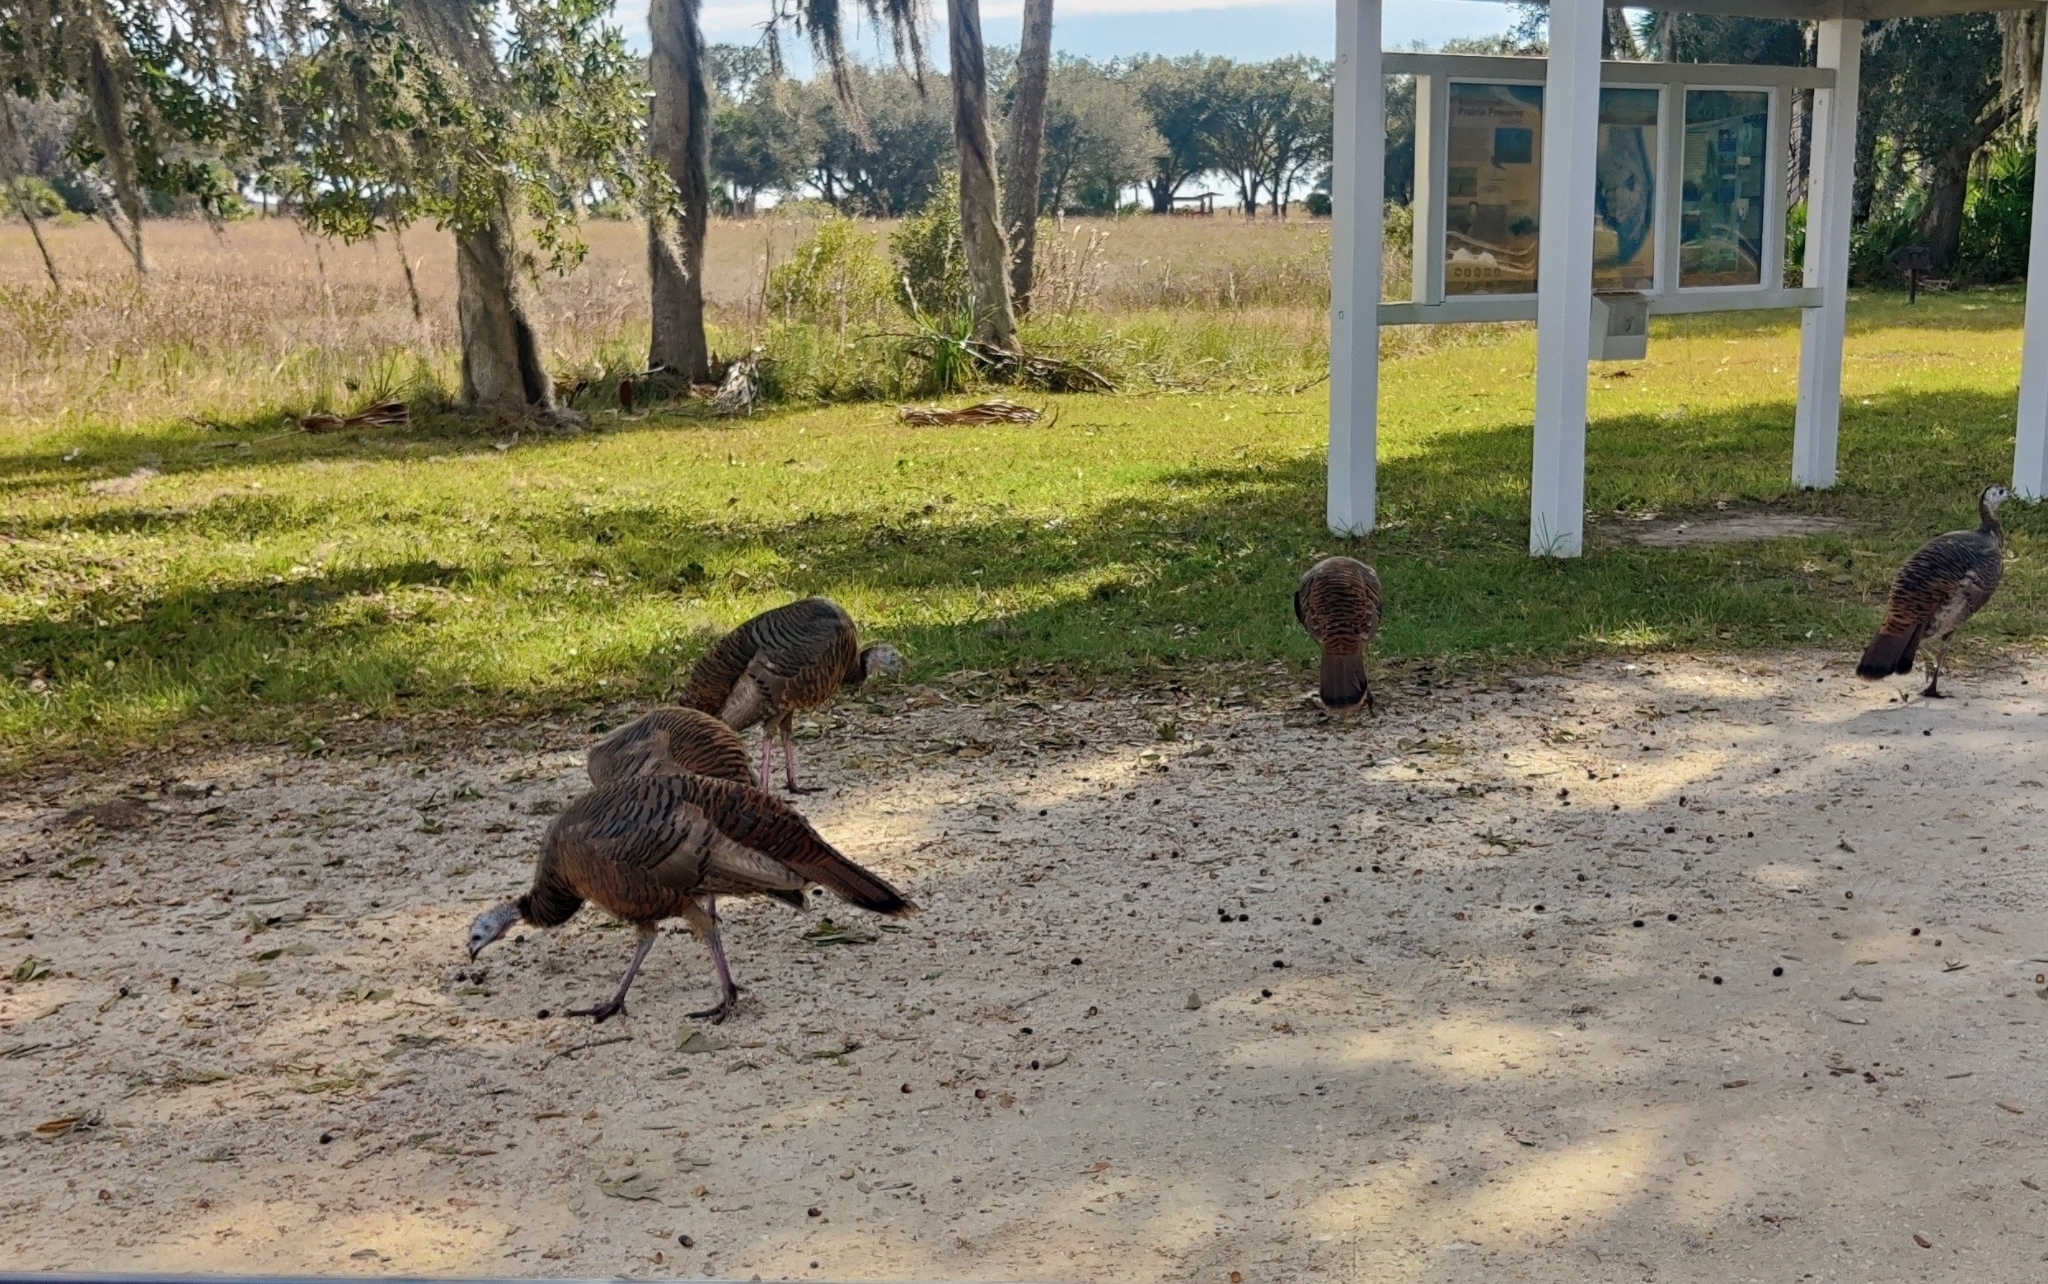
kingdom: Animalia
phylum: Chordata
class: Aves
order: Galliformes
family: Phasianidae
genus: Meleagris
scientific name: Meleagris gallopavo
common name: Wild turkey
